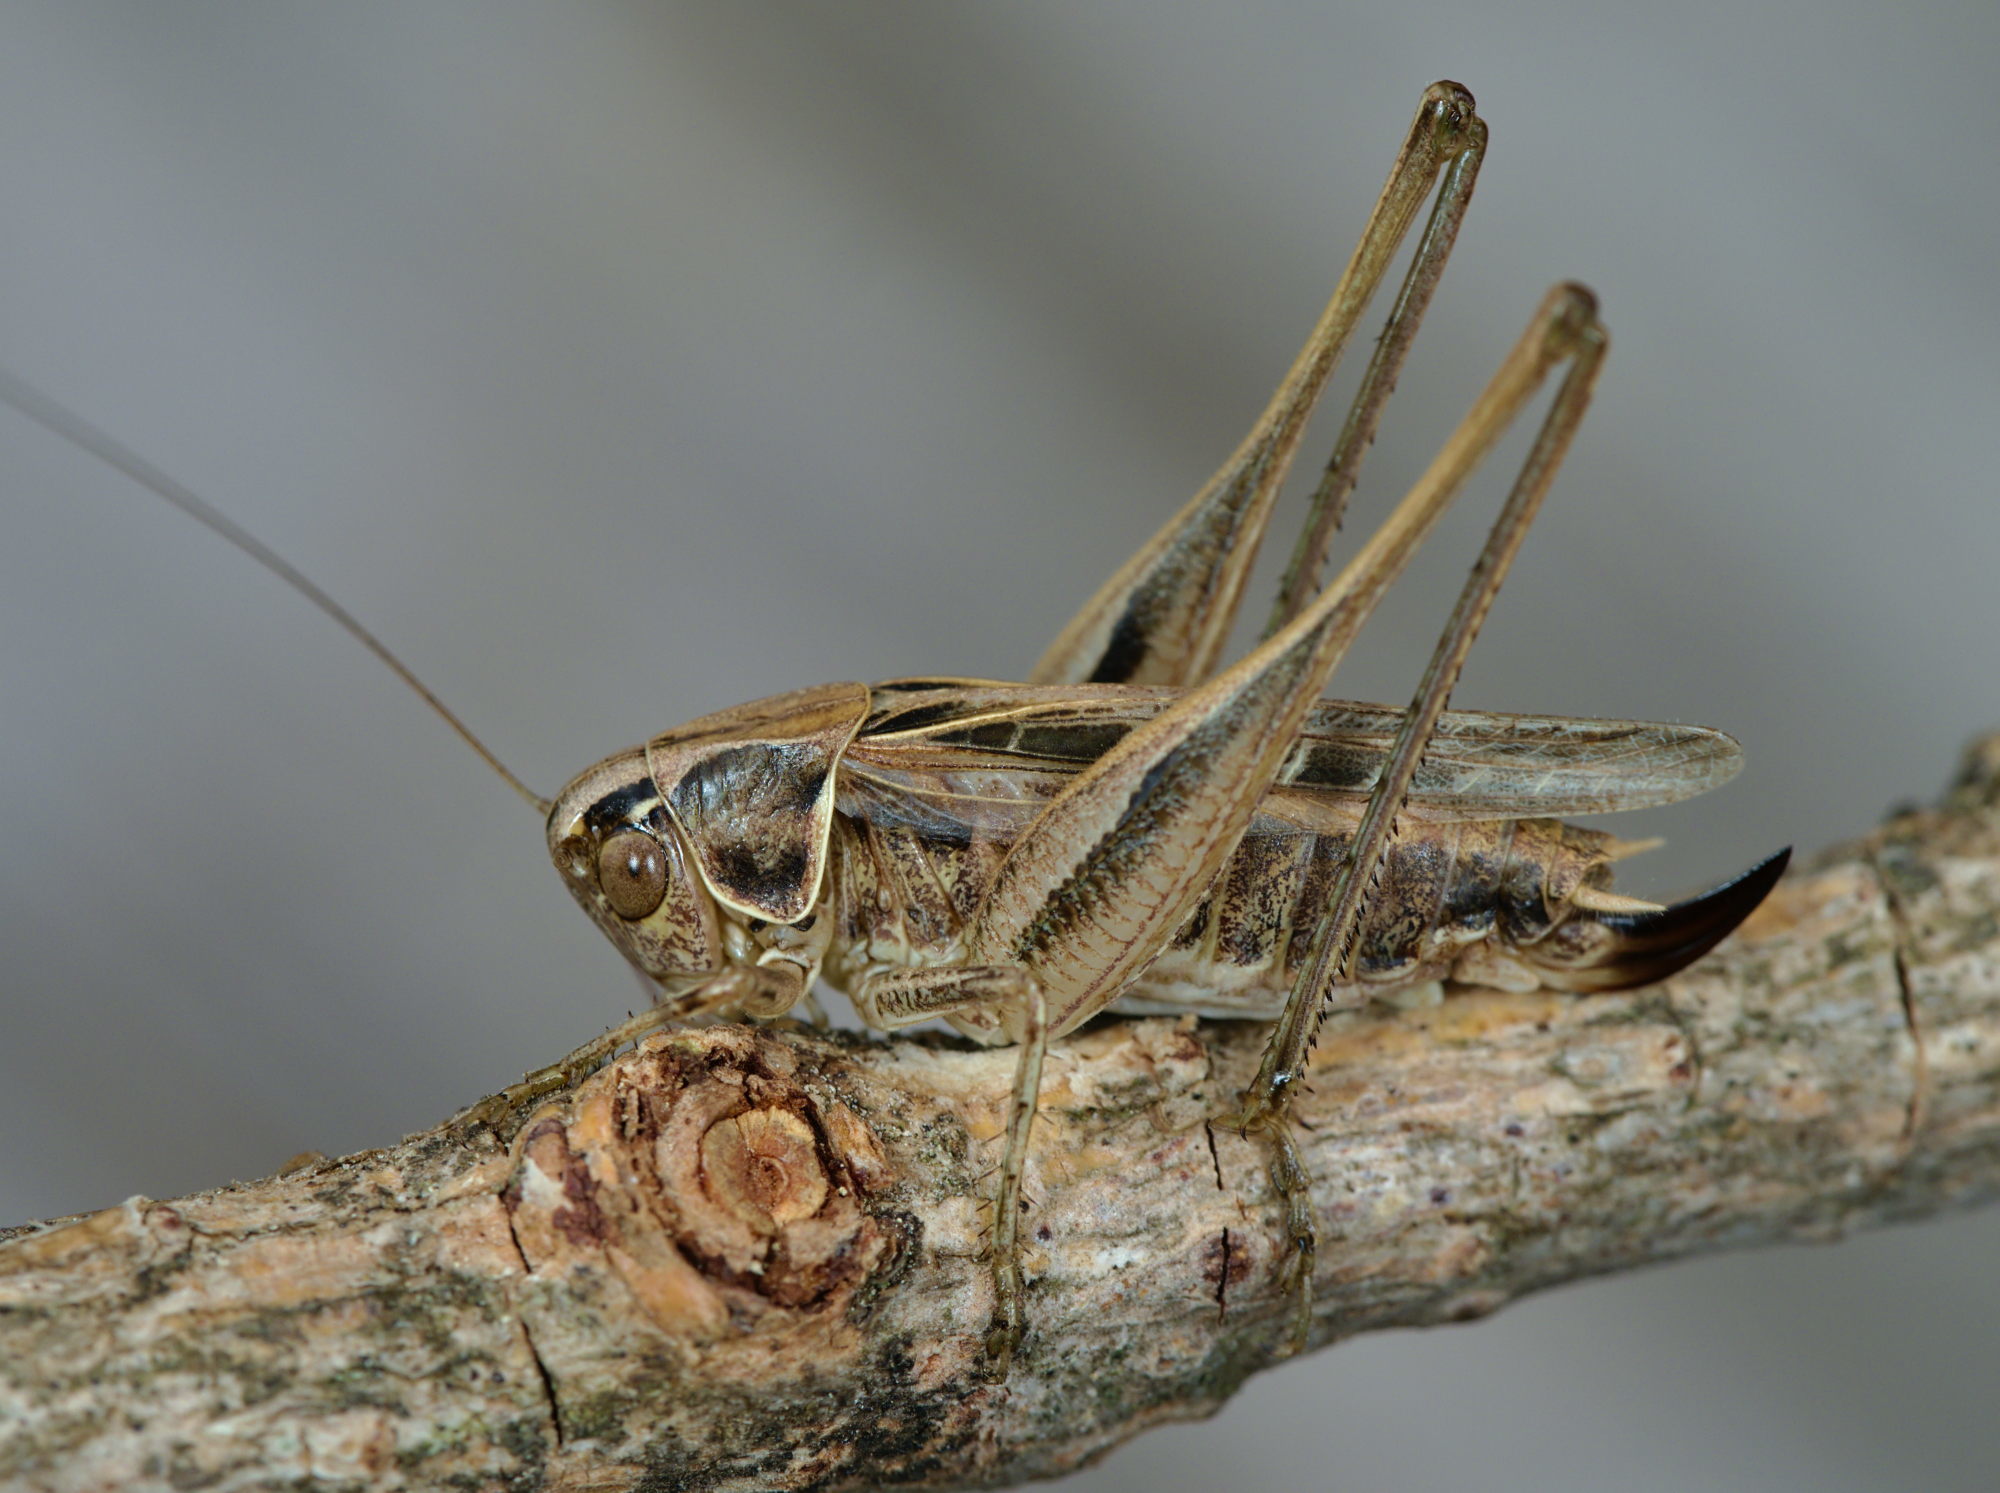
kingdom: Animalia
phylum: Arthropoda
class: Insecta
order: Orthoptera
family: Tettigoniidae
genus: Tessellana
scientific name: Tessellana tessellata
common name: Grasshopper
